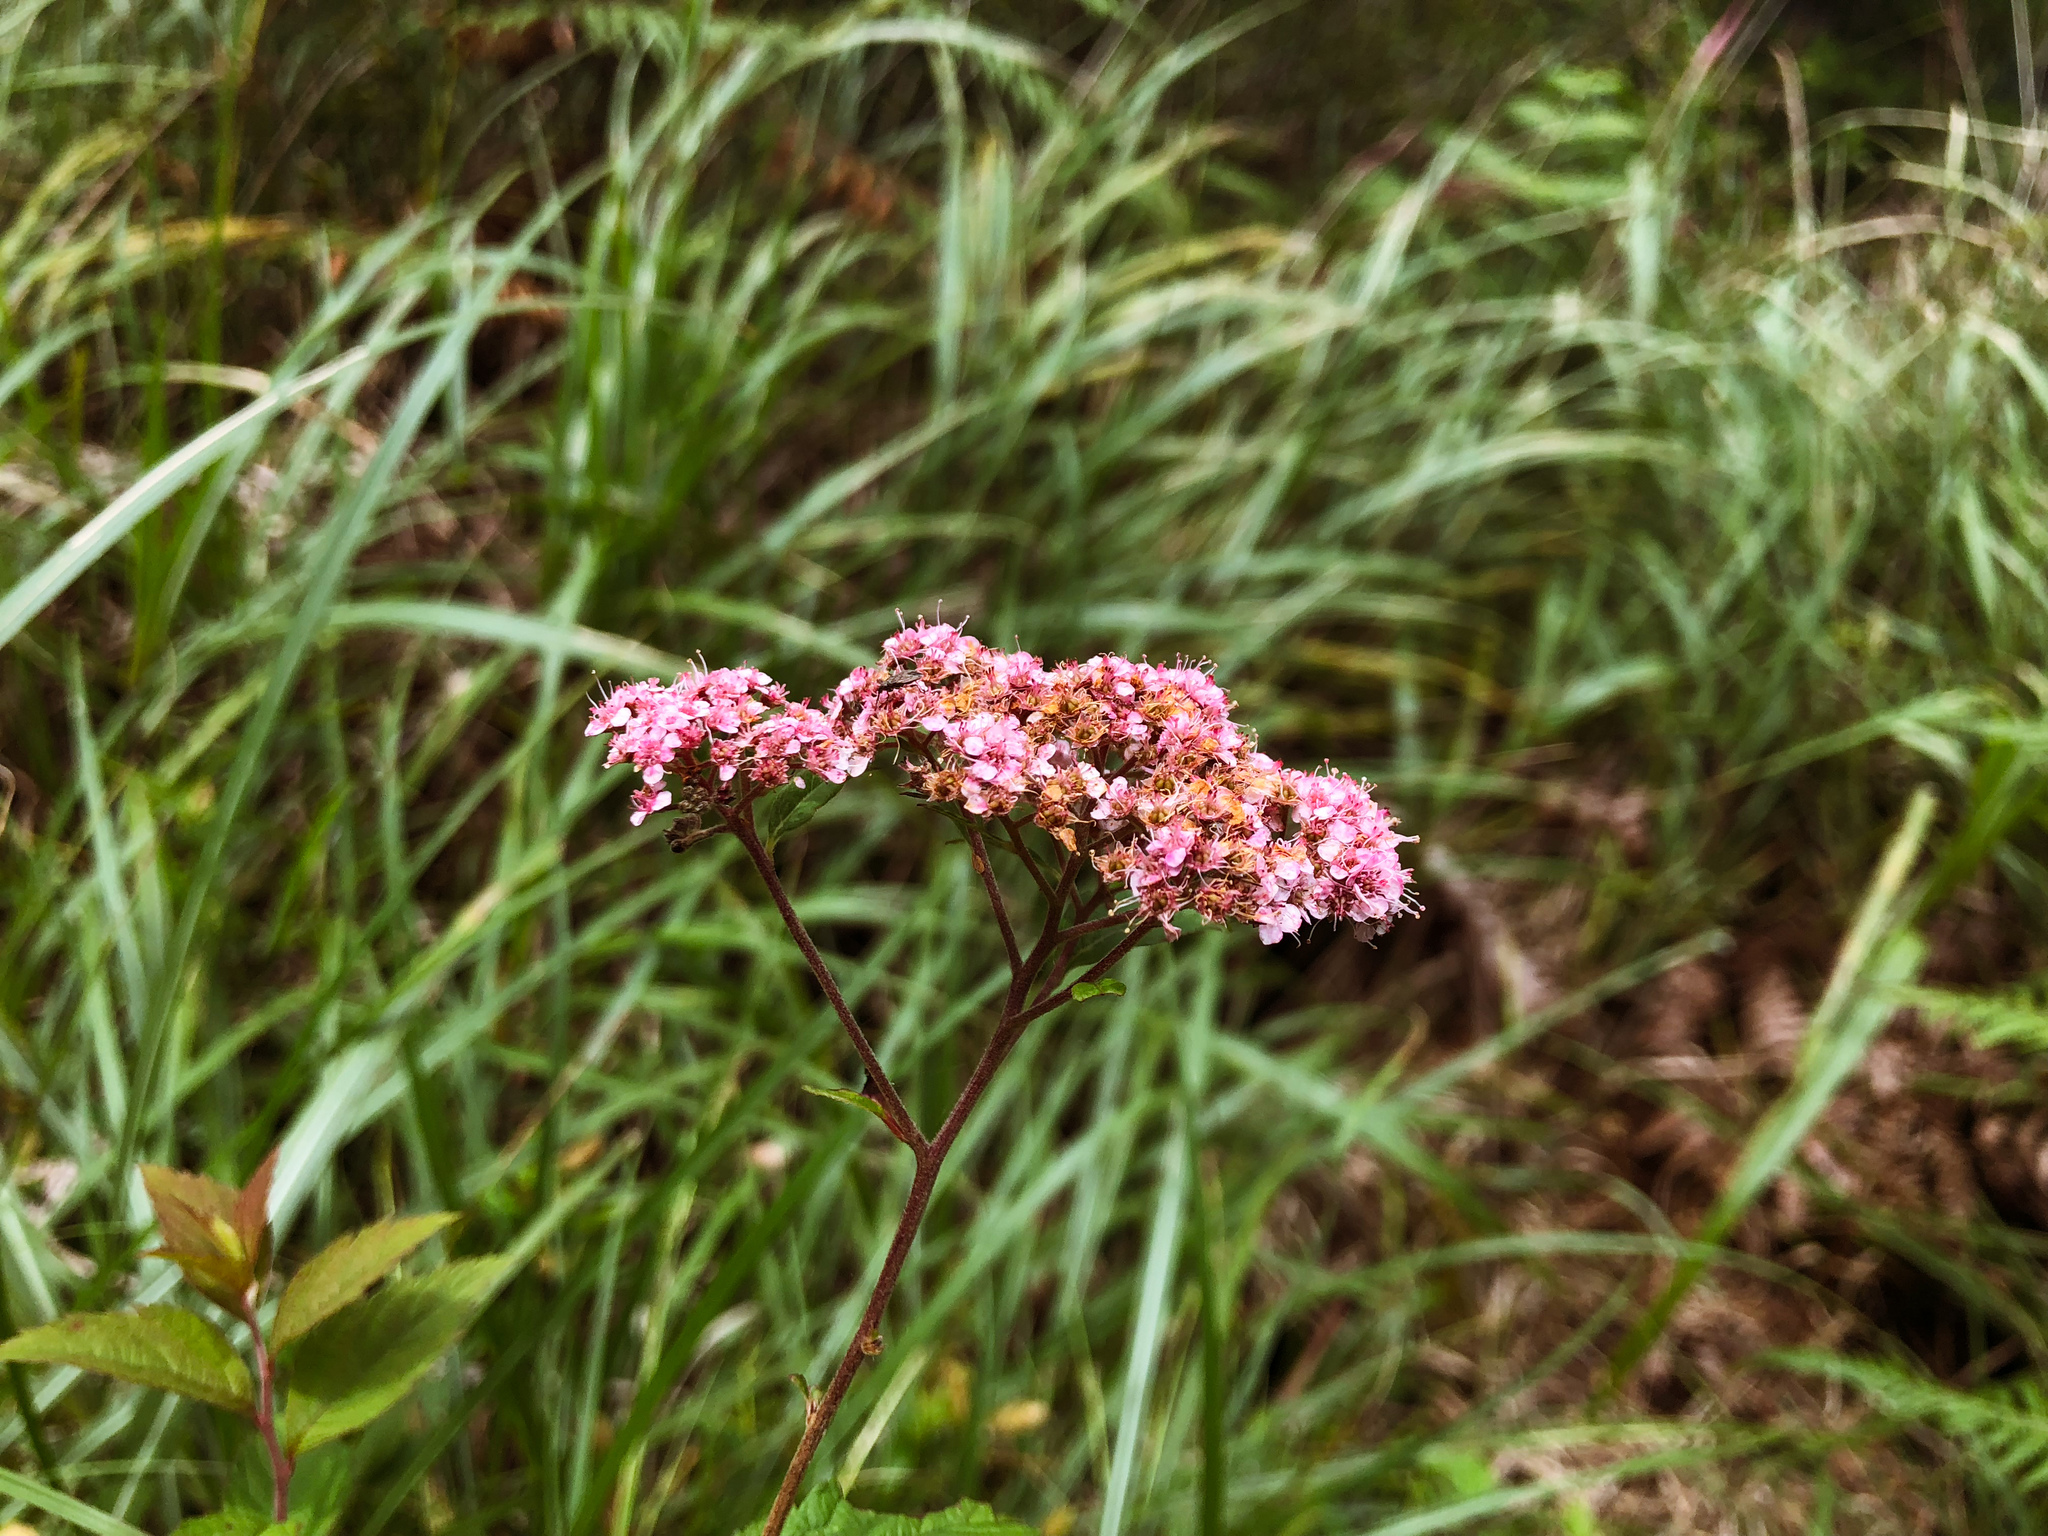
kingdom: Plantae
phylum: Tracheophyta
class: Magnoliopsida
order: Rosales
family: Rosaceae
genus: Spiraea
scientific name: Spiraea japonica
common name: Japanese spiraea
